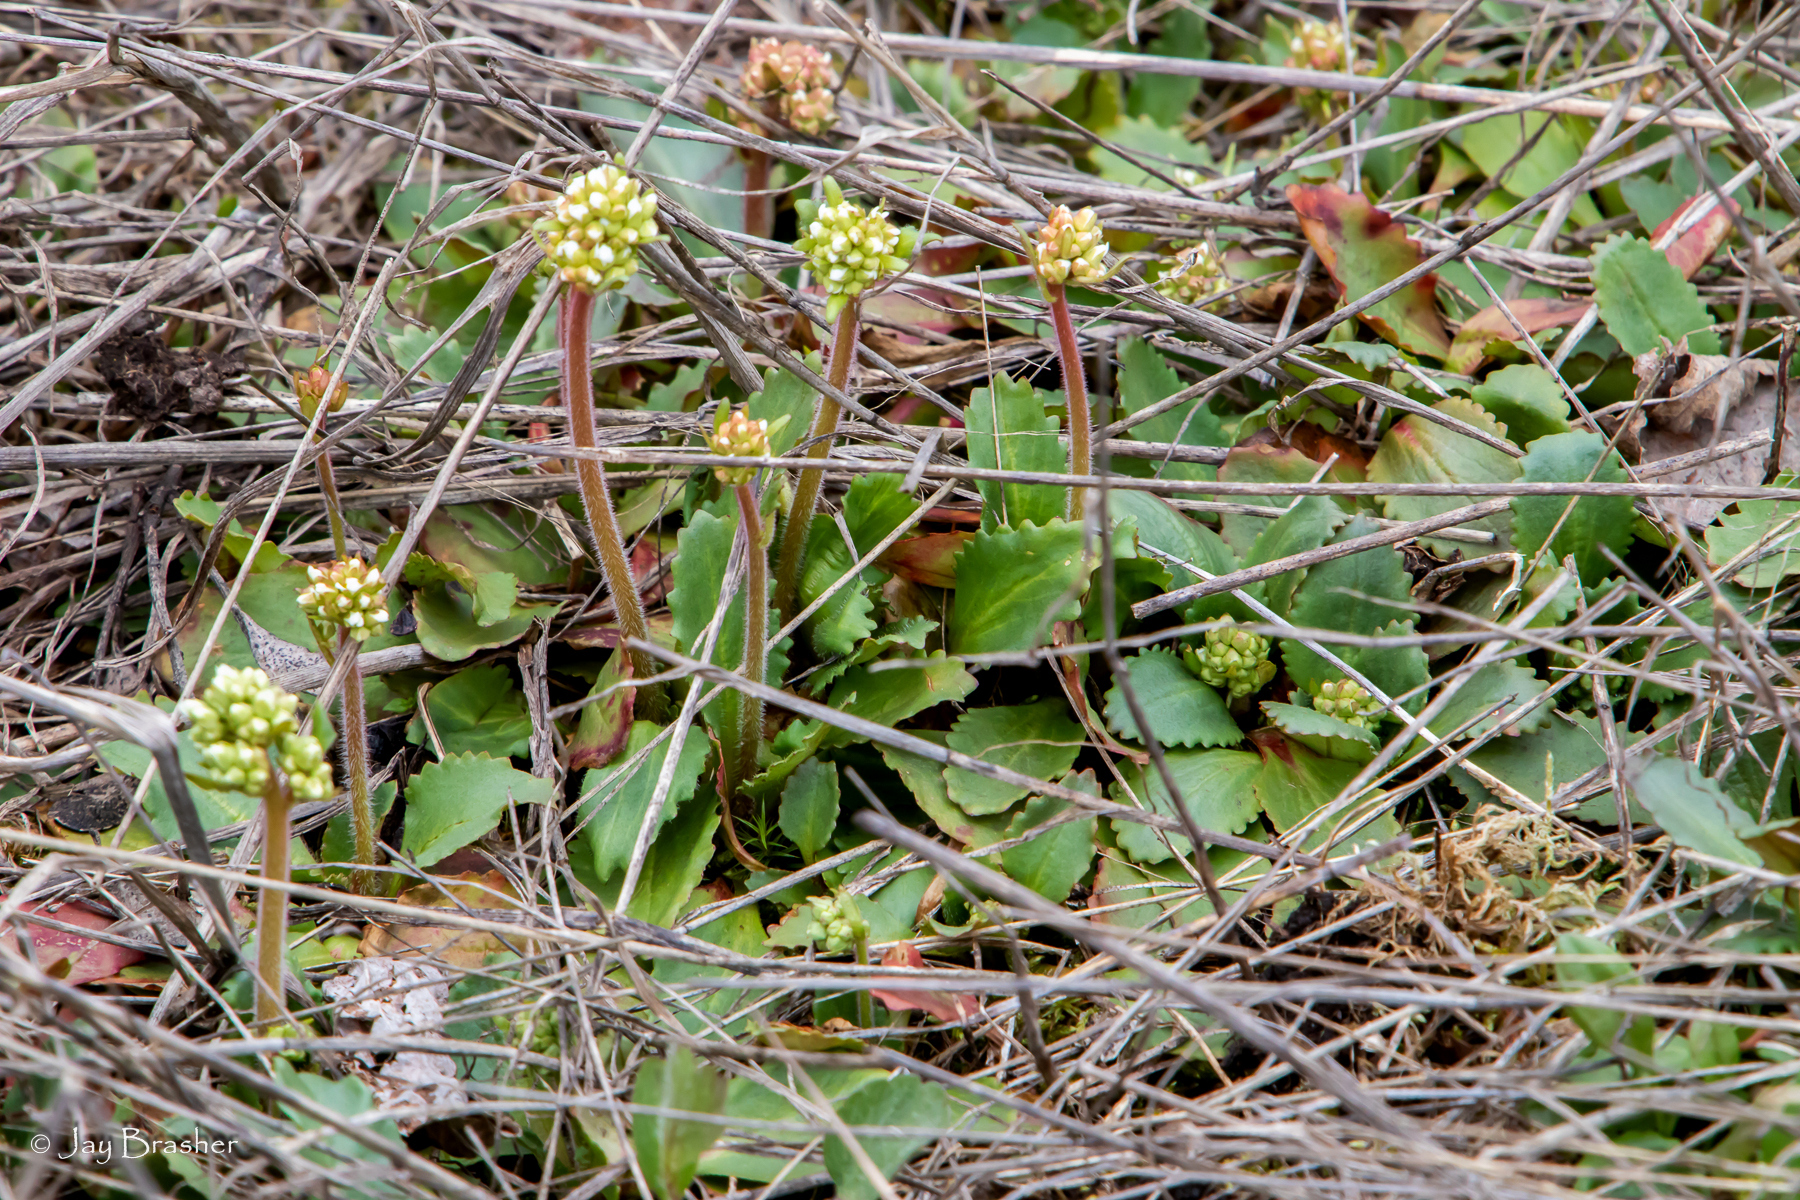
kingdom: Plantae
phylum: Tracheophyta
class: Magnoliopsida
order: Saxifragales
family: Saxifragaceae
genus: Micranthes
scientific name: Micranthes virginiensis
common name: Early saxifrage
